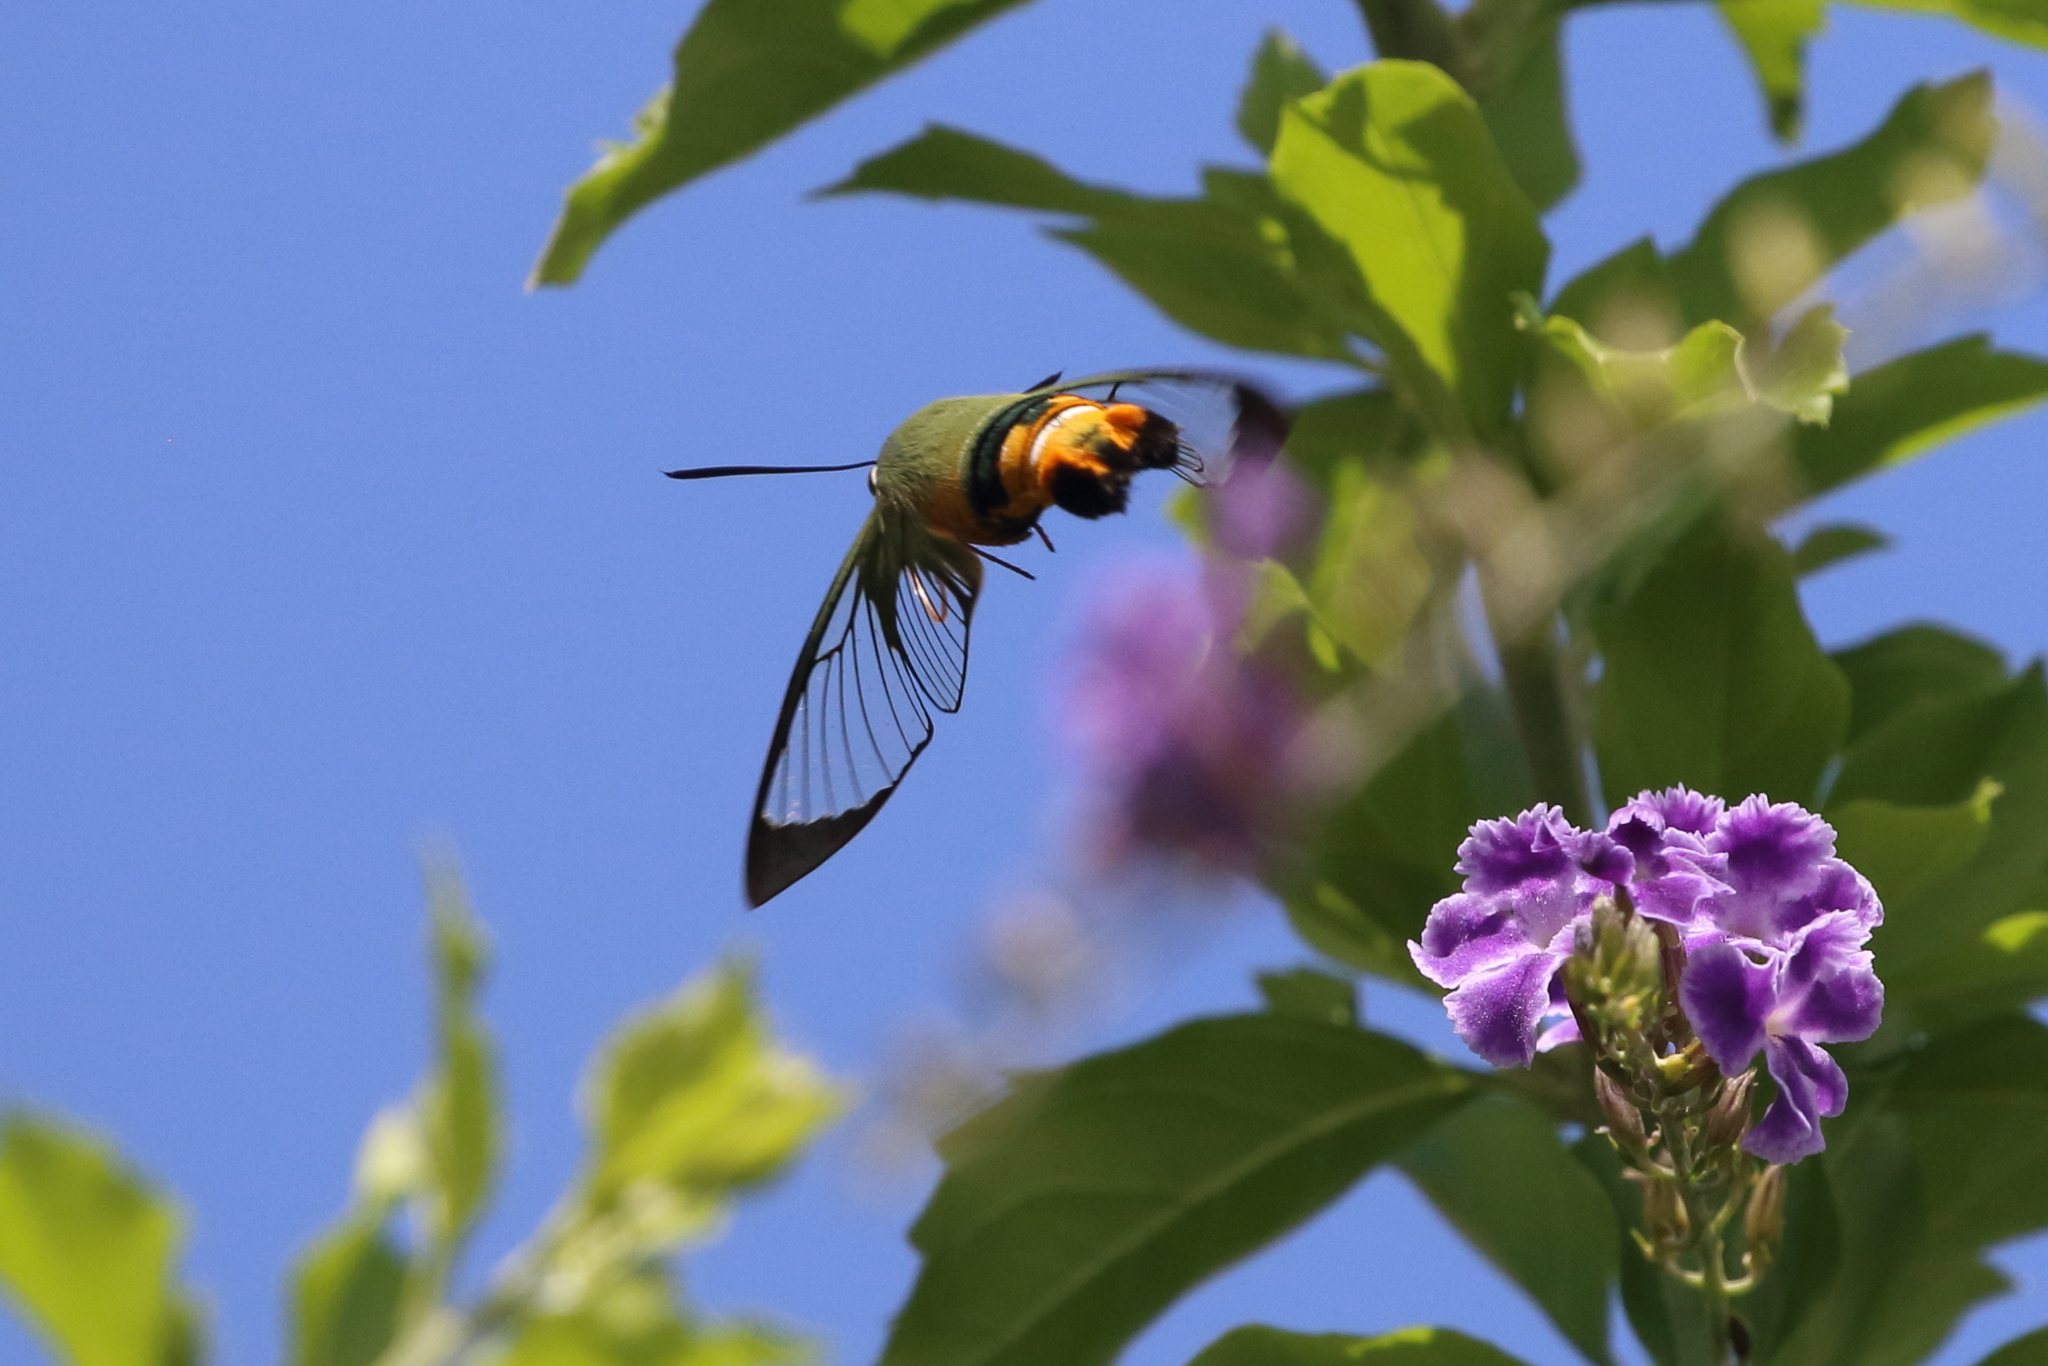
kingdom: Animalia
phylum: Arthropoda
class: Insecta
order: Lepidoptera
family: Sphingidae
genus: Cephonodes
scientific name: Cephonodes kingii
